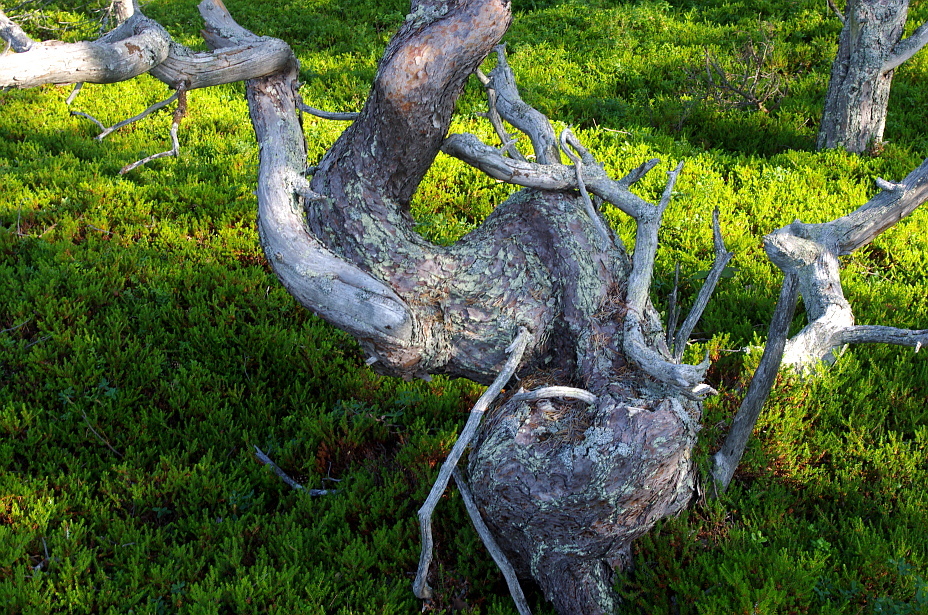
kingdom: Plantae
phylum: Tracheophyta
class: Pinopsida
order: Pinales
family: Pinaceae
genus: Pinus
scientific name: Pinus sylvestris
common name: Scots pine
